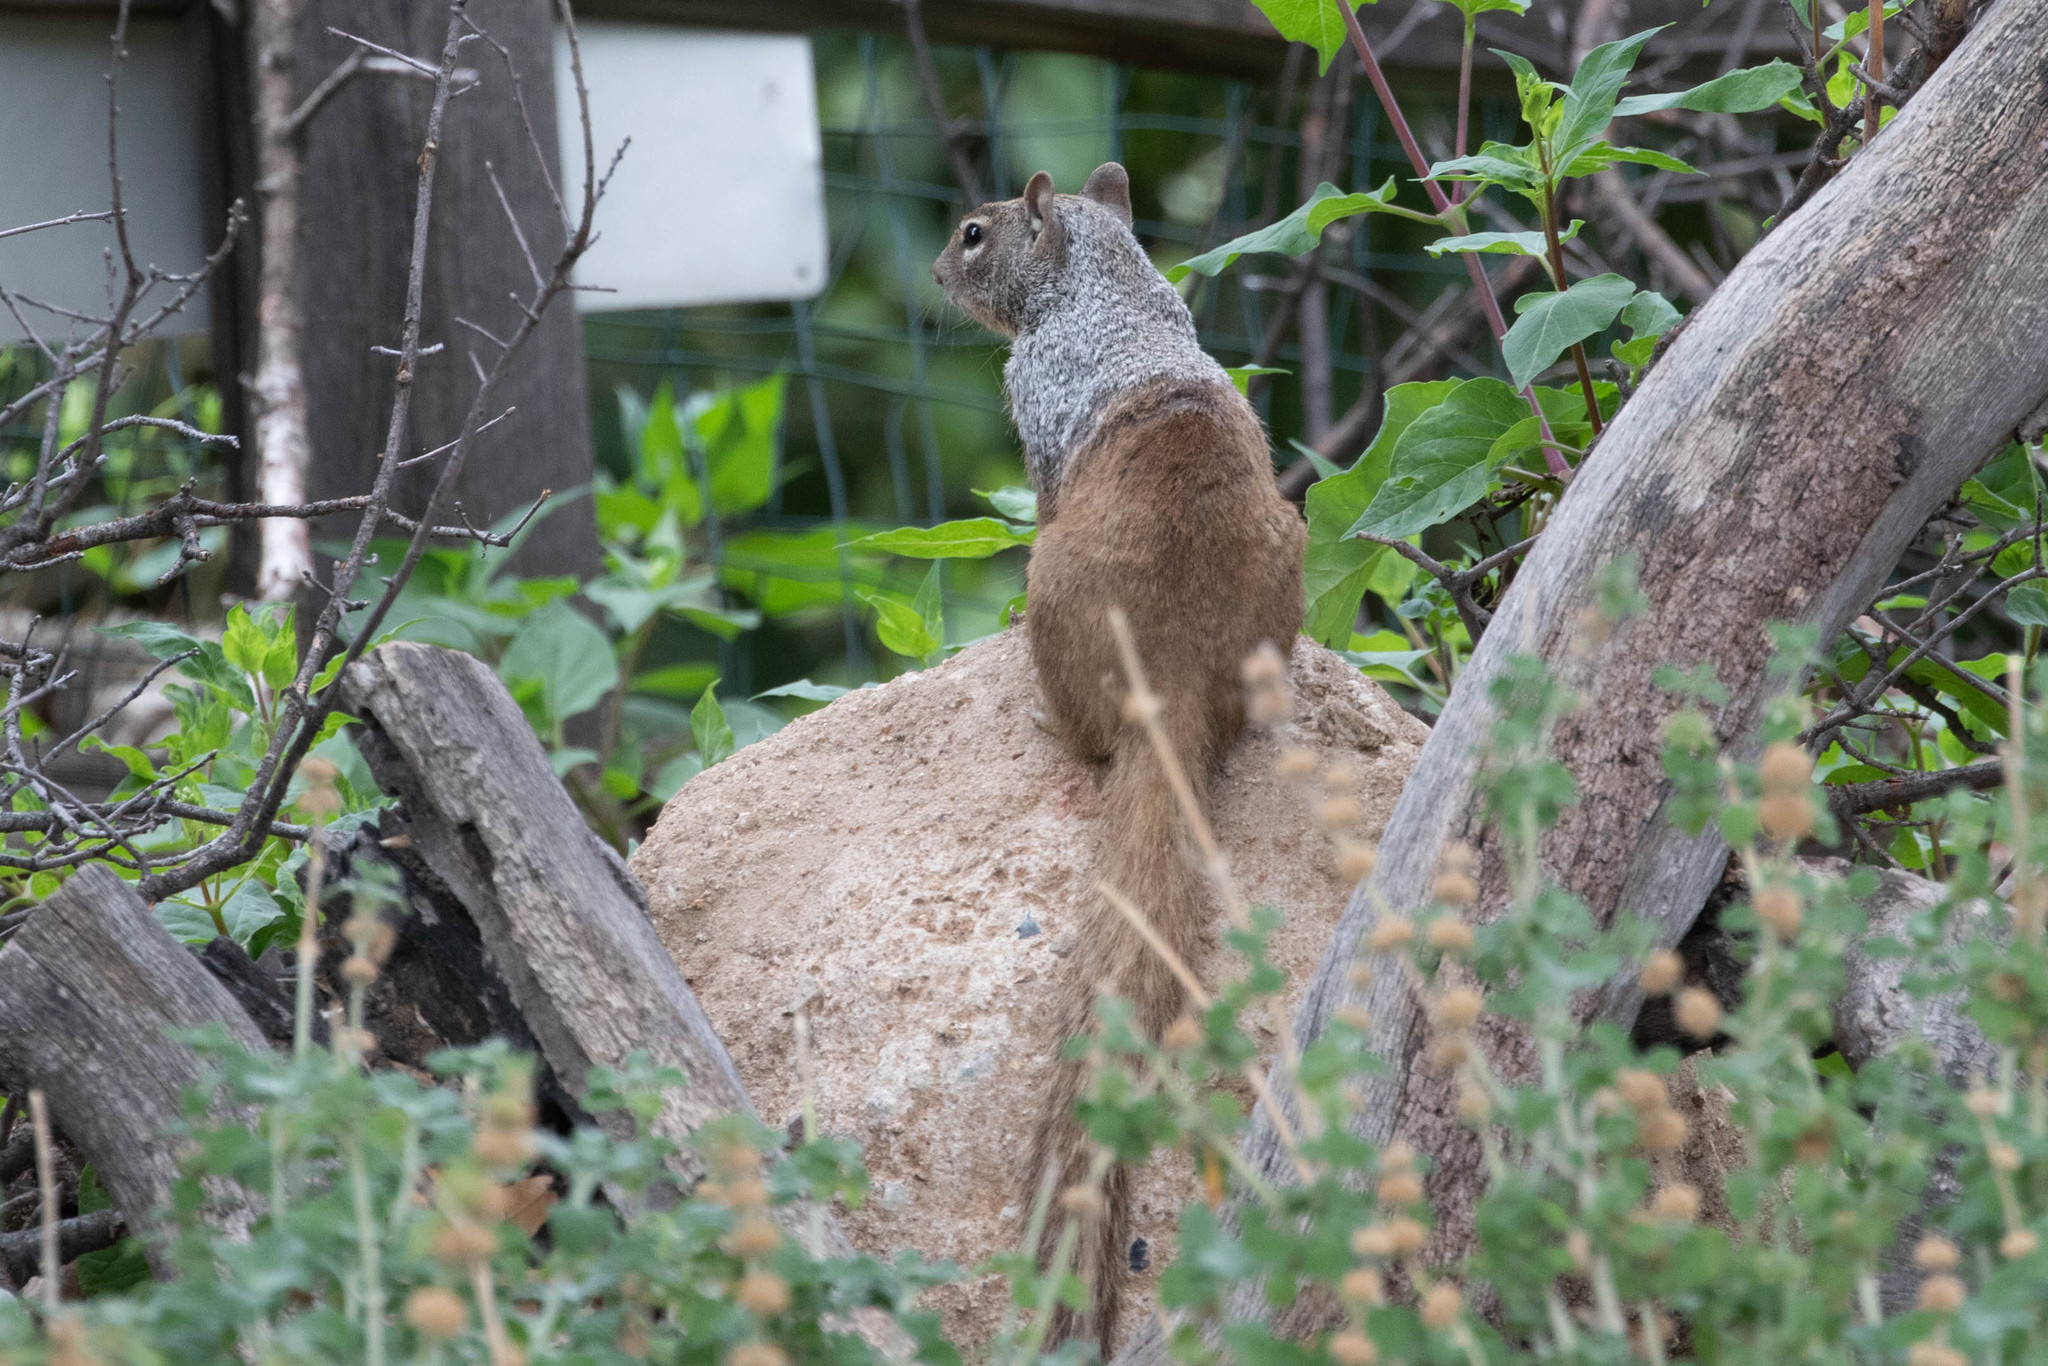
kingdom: Animalia
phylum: Chordata
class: Mammalia
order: Rodentia
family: Sciuridae
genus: Otospermophilus
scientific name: Otospermophilus variegatus
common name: Rock squirrel
